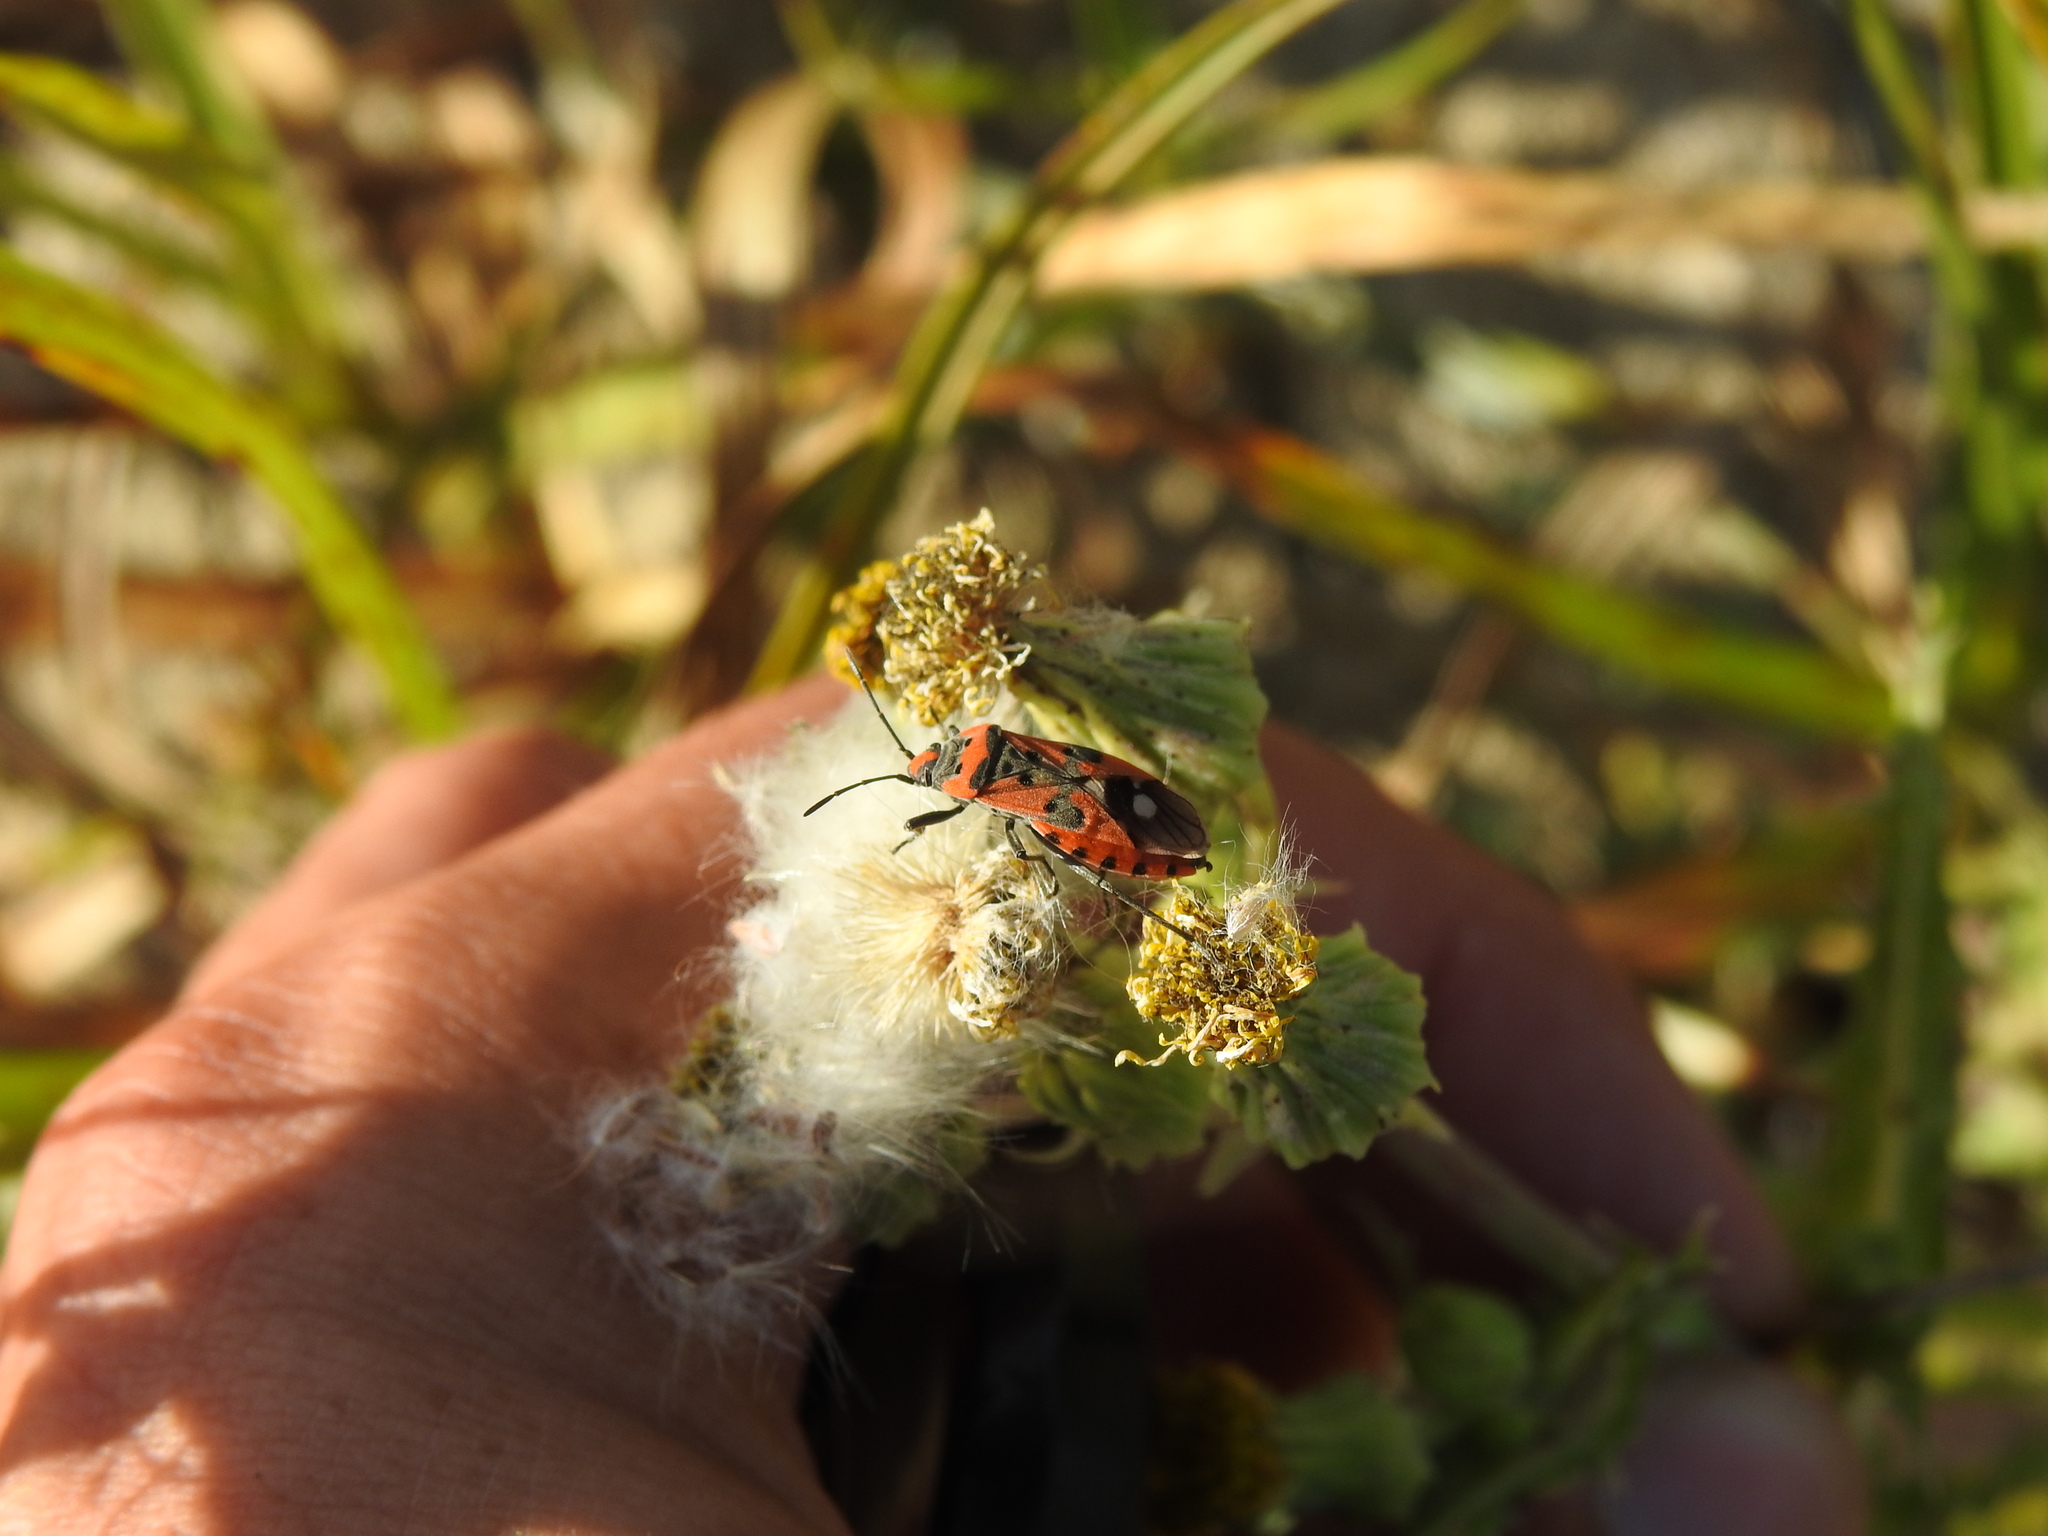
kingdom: Animalia
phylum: Arthropoda
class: Insecta
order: Hemiptera
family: Lygaeidae
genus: Lygaeus
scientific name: Lygaeus equestris
